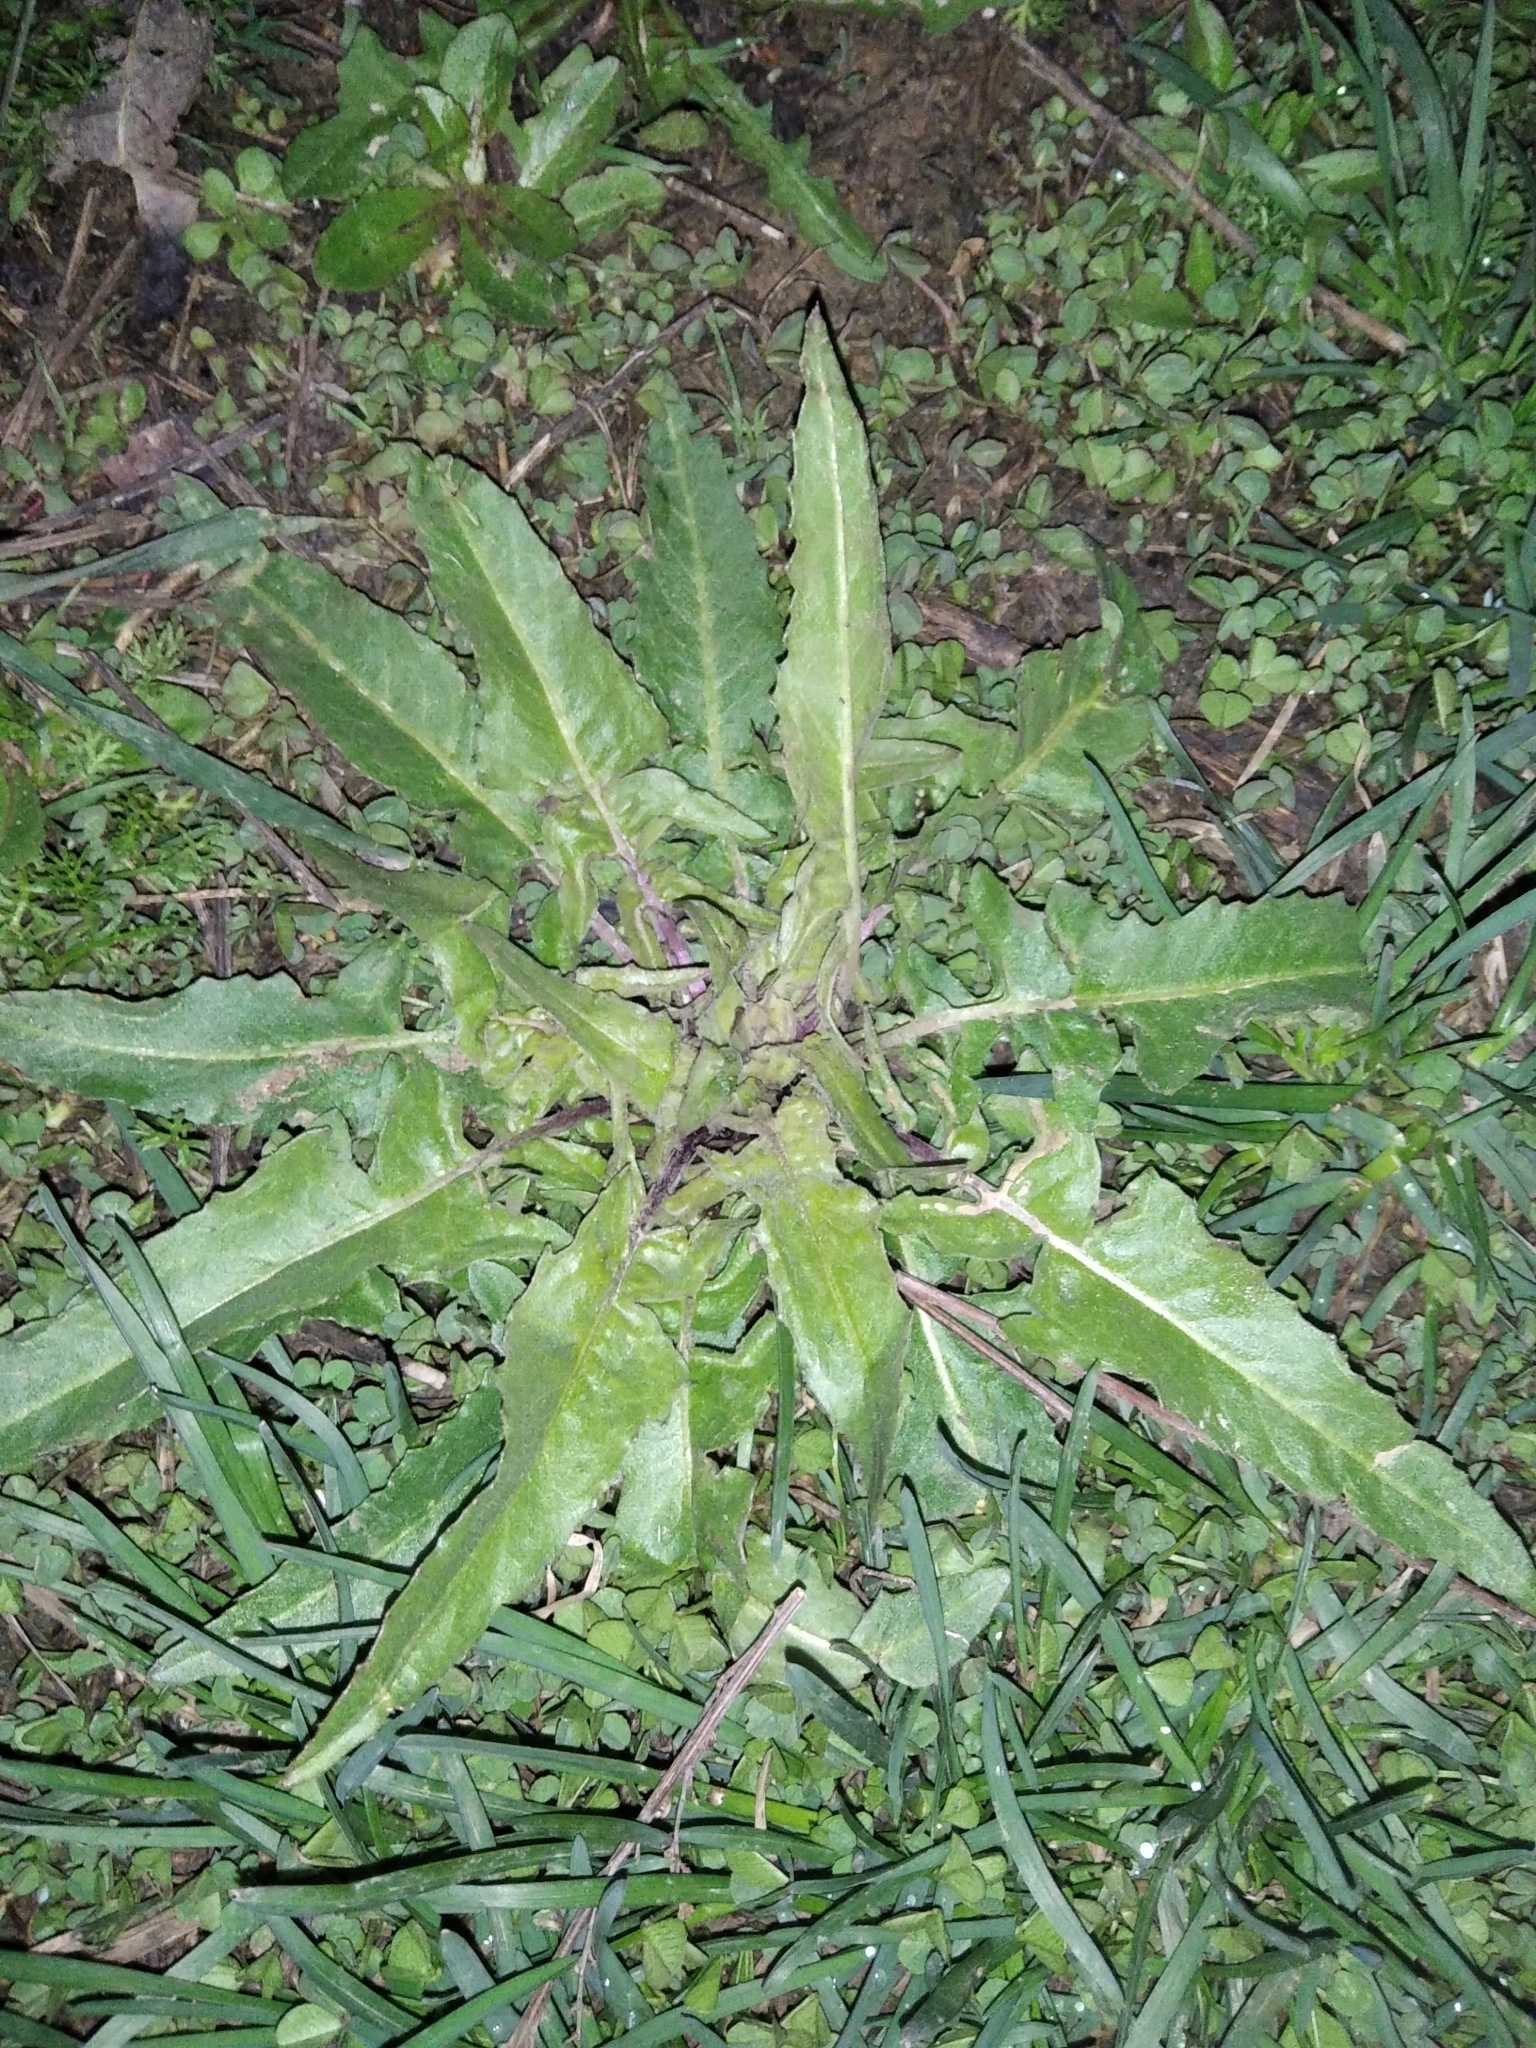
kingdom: Plantae
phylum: Tracheophyta
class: Magnoliopsida
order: Brassicales
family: Brassicaceae
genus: Bunias
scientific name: Bunias orientalis
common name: Warty-cabbage
